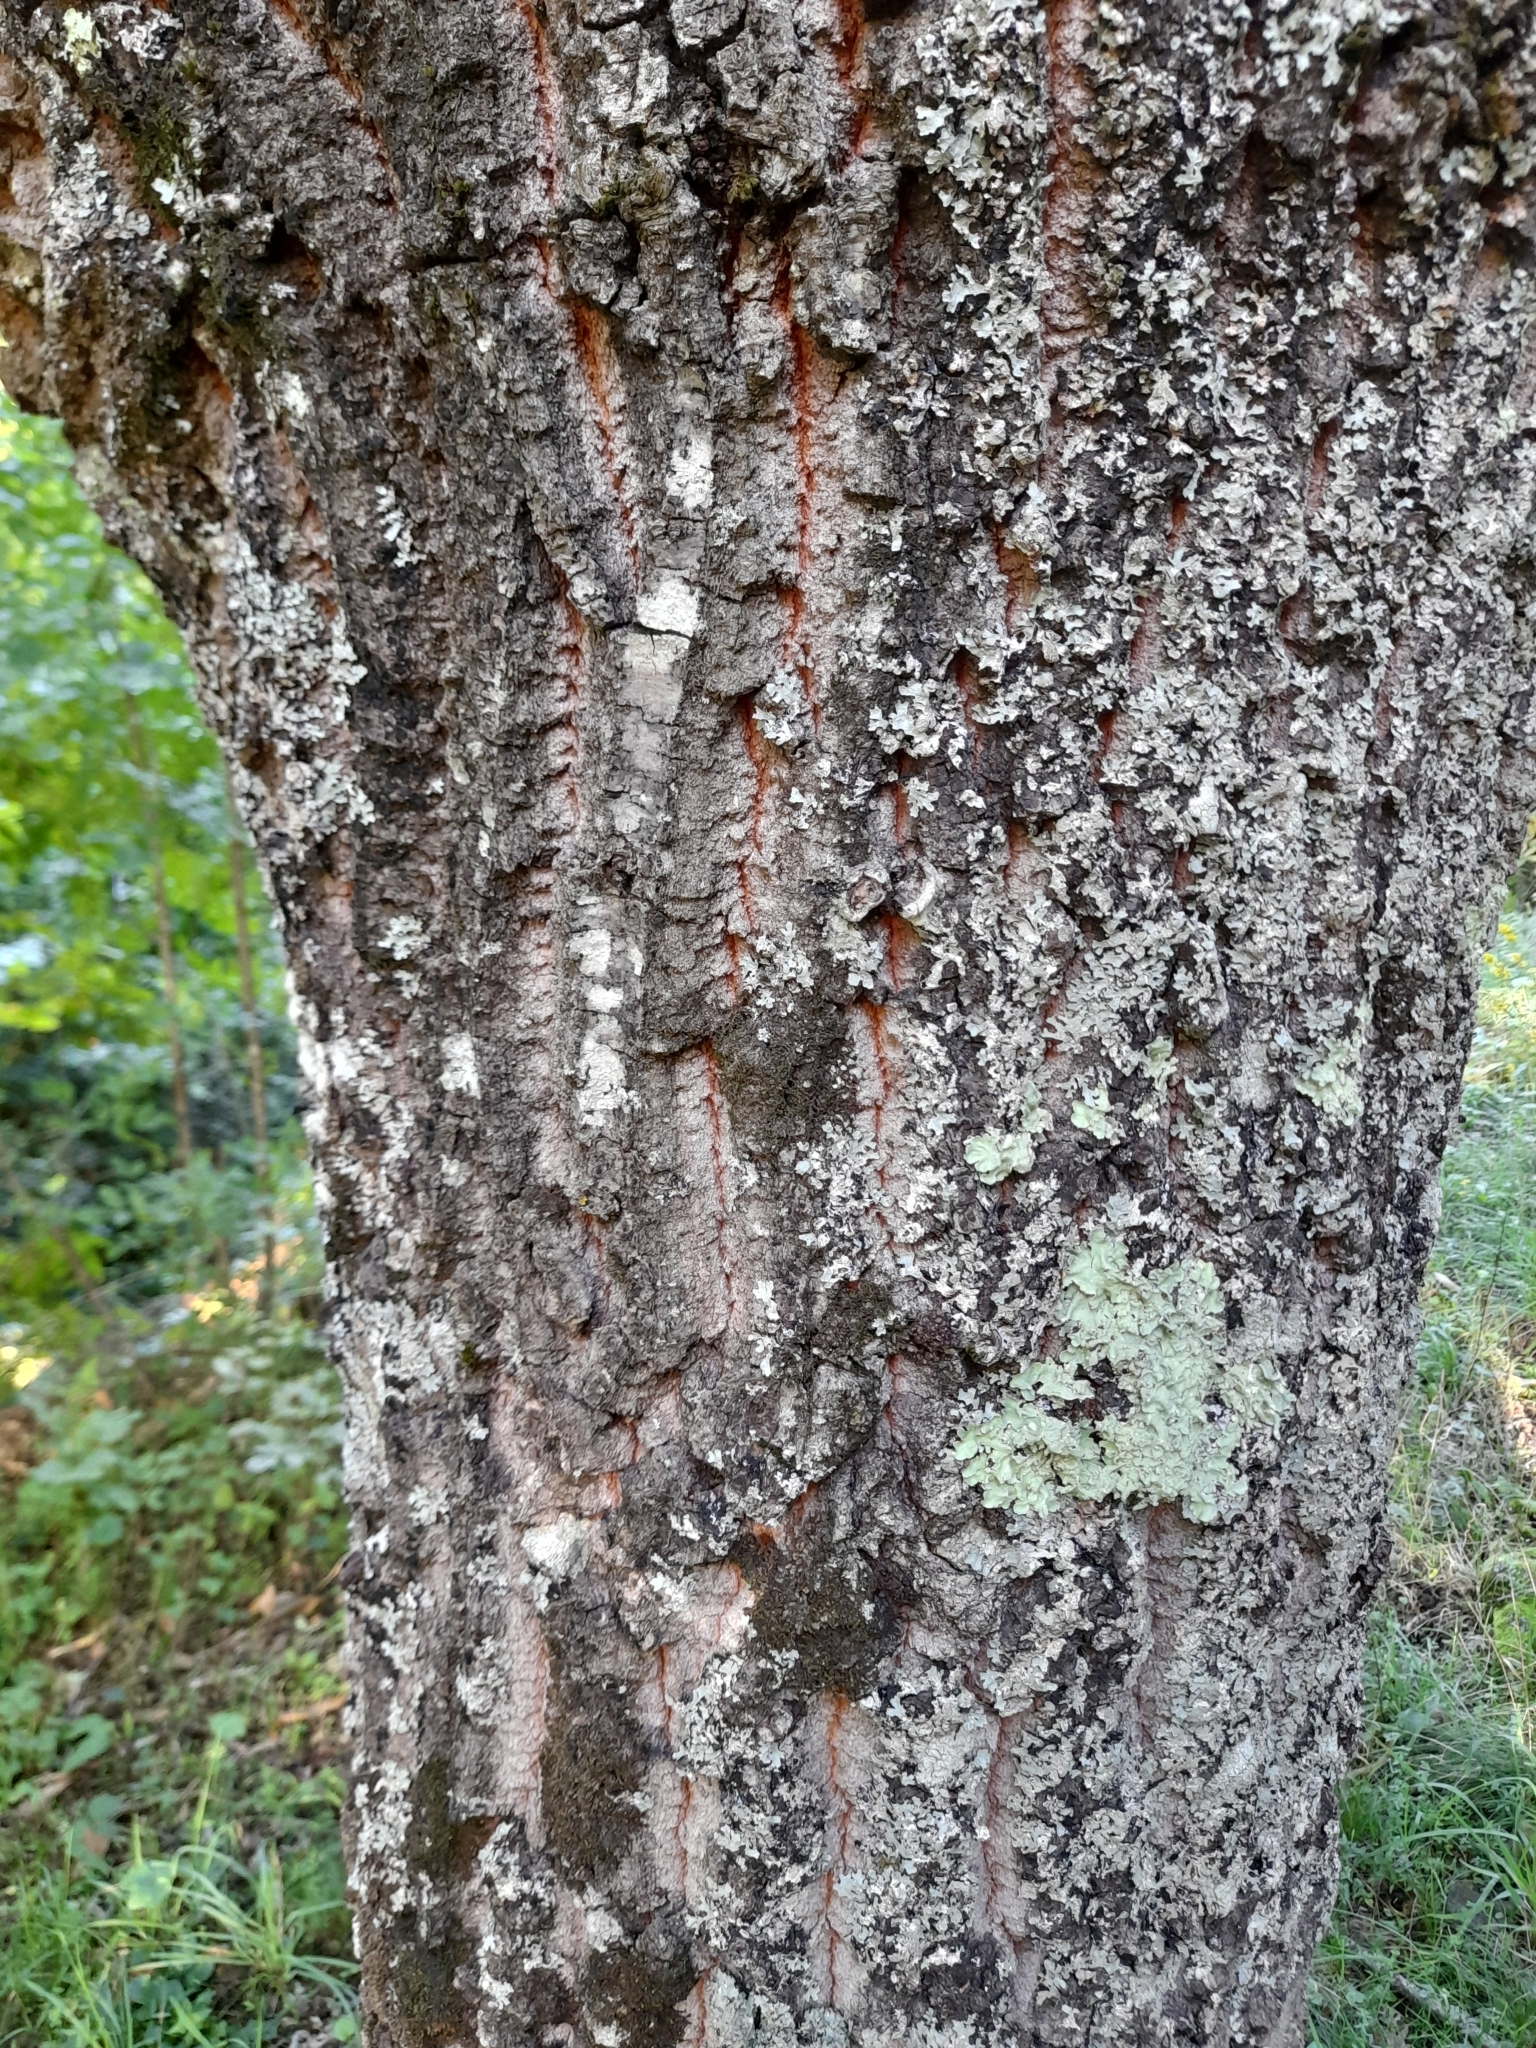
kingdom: Plantae
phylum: Tracheophyta
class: Magnoliopsida
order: Fagales
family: Fagaceae
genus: Quercus
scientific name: Quercus cerris
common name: Turkey oak
